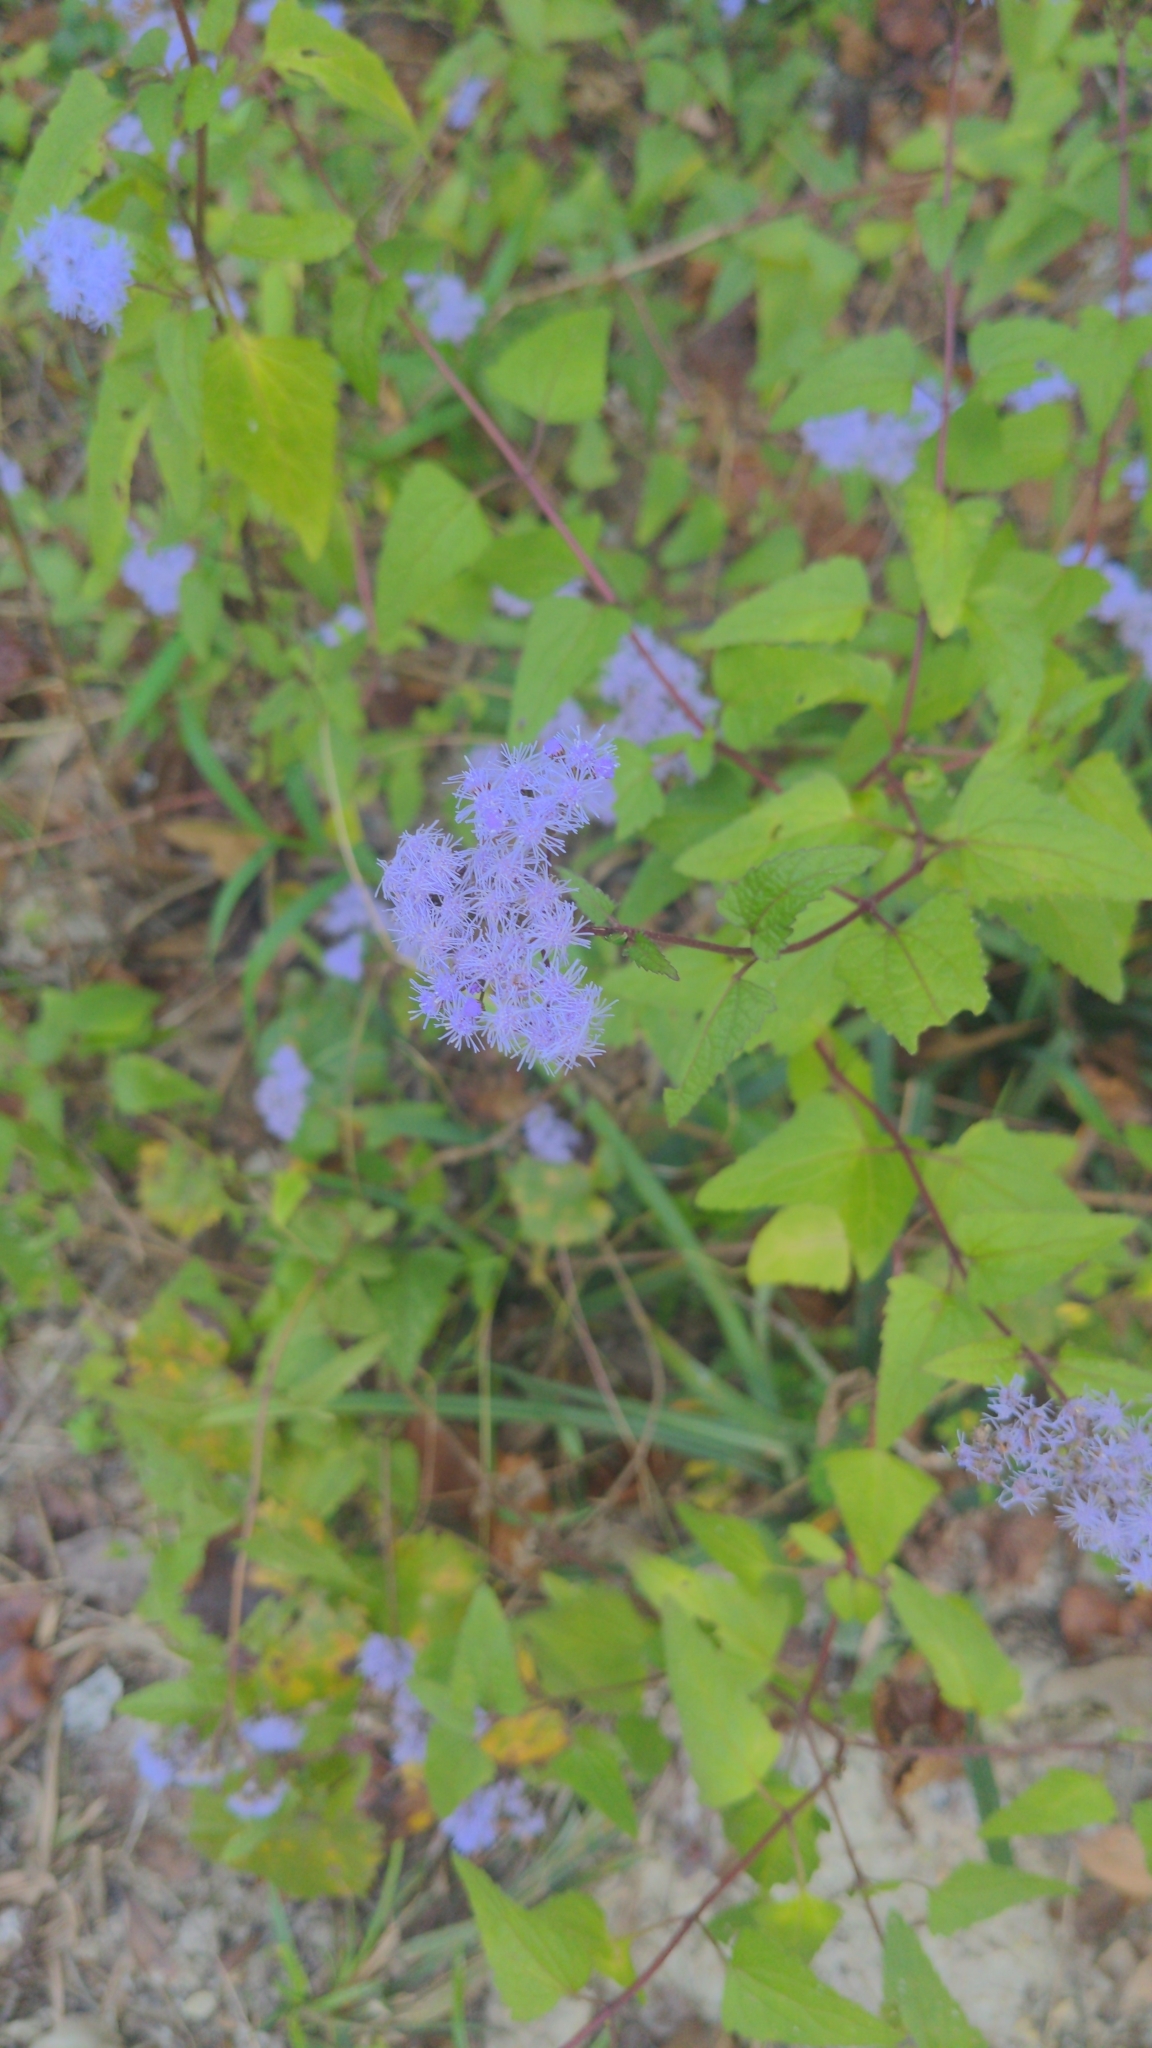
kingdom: Plantae
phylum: Tracheophyta
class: Magnoliopsida
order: Asterales
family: Asteraceae
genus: Conoclinium
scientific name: Conoclinium coelestinum
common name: Blue mistflower
